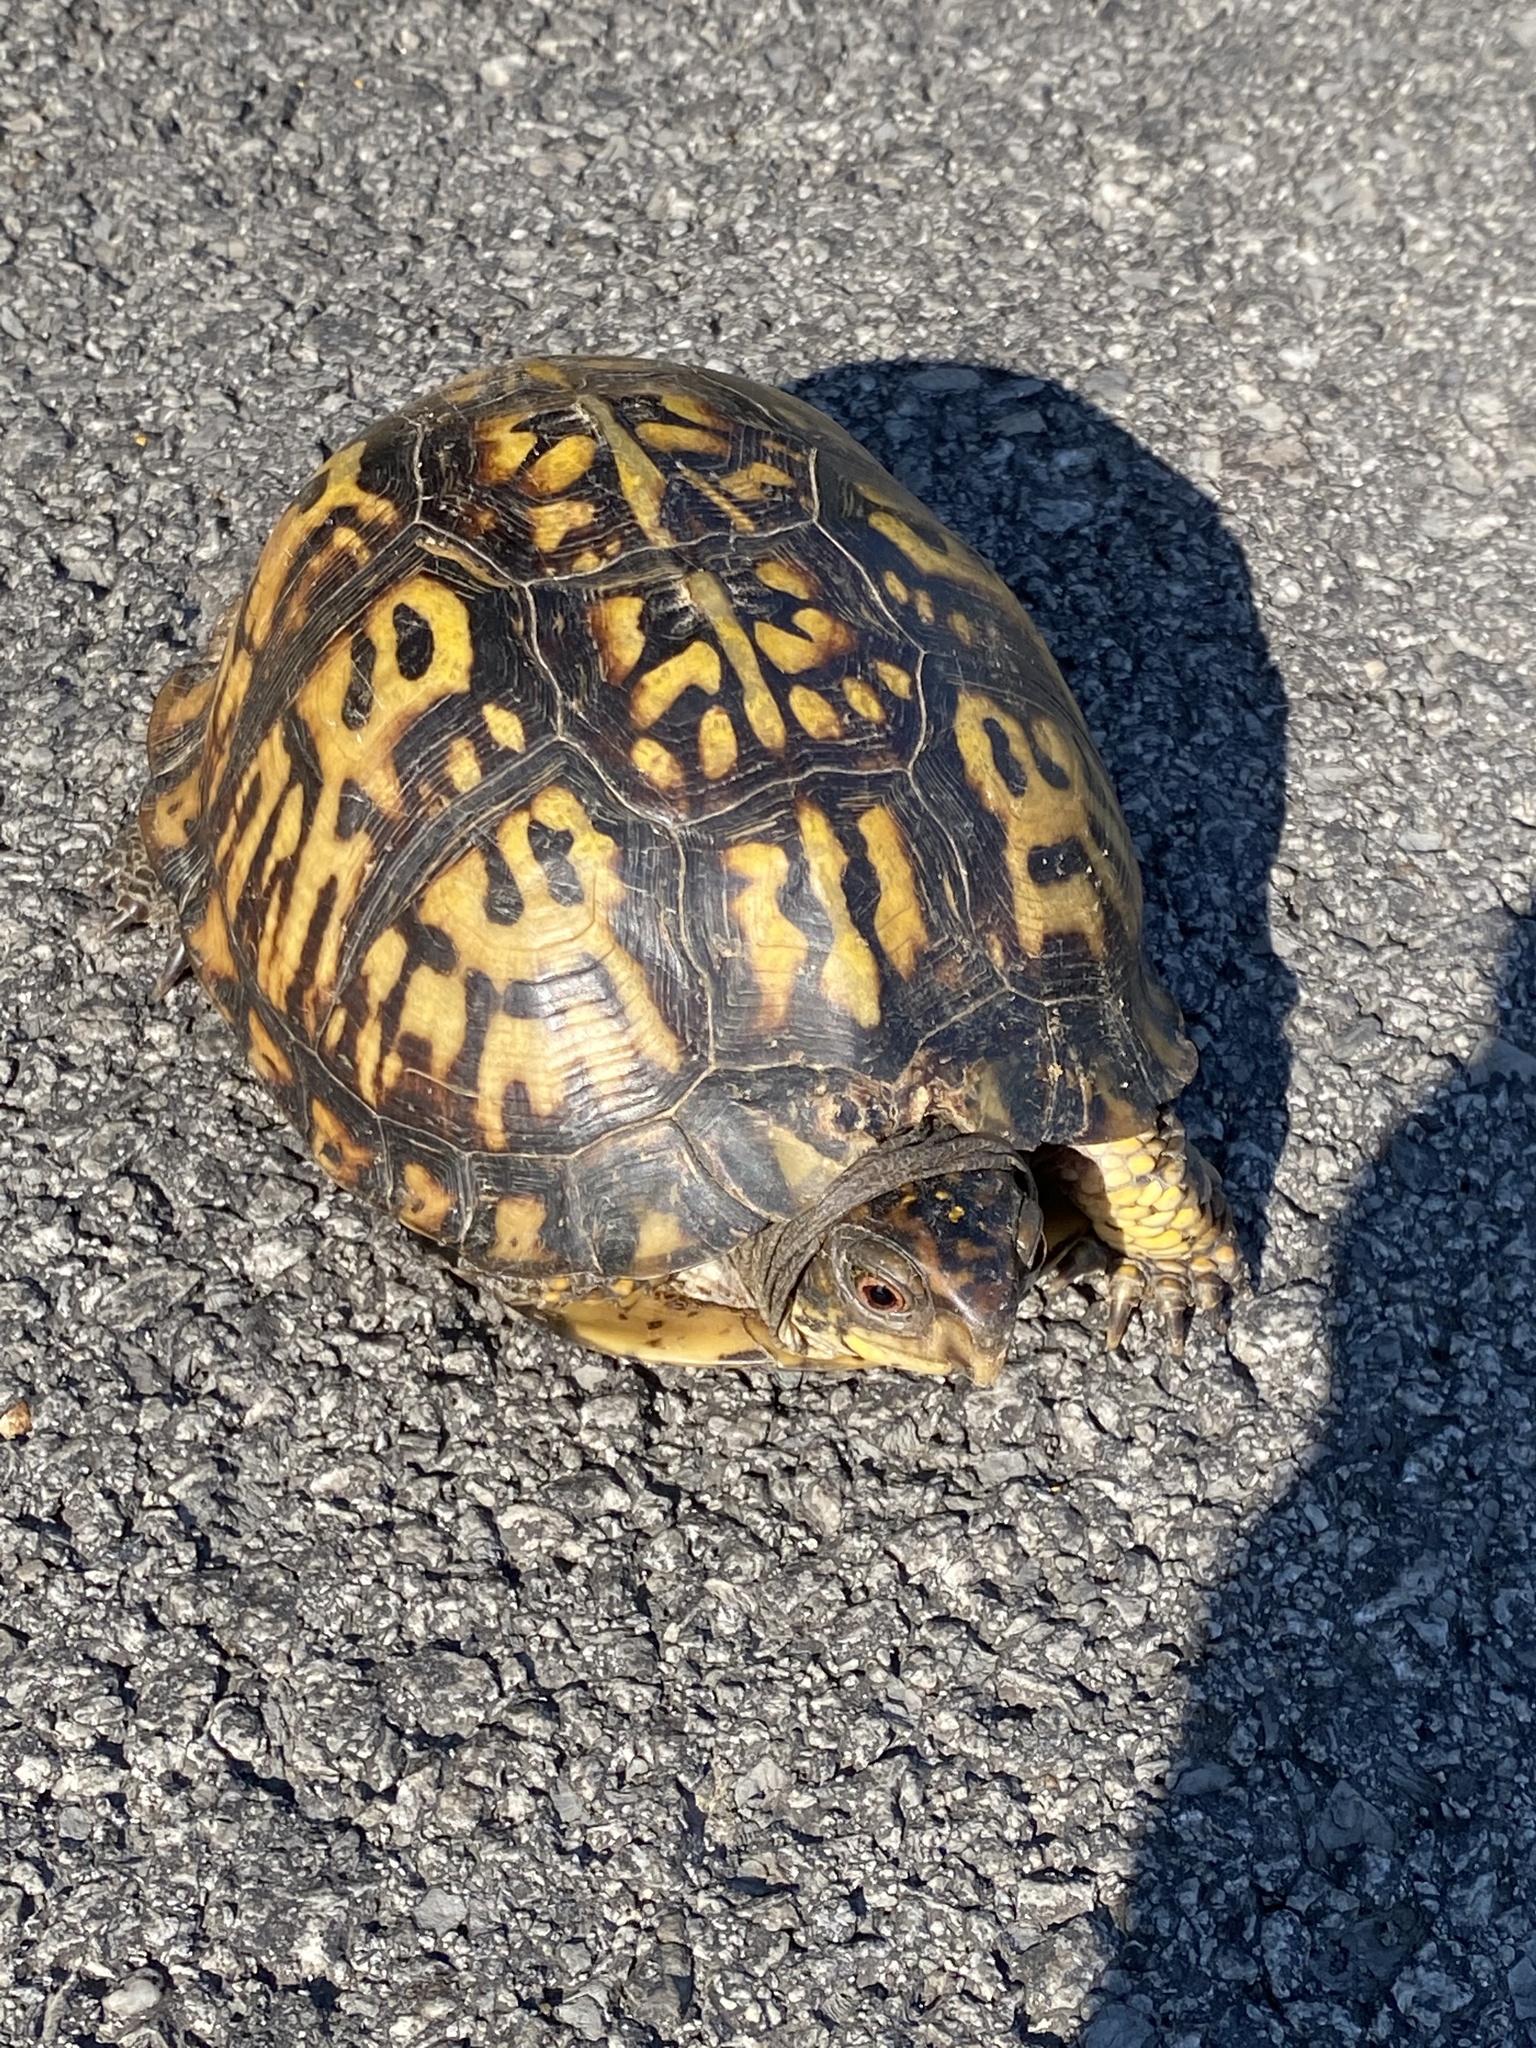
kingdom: Animalia
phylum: Chordata
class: Testudines
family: Emydidae
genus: Terrapene
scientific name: Terrapene carolina
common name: Common box turtle
